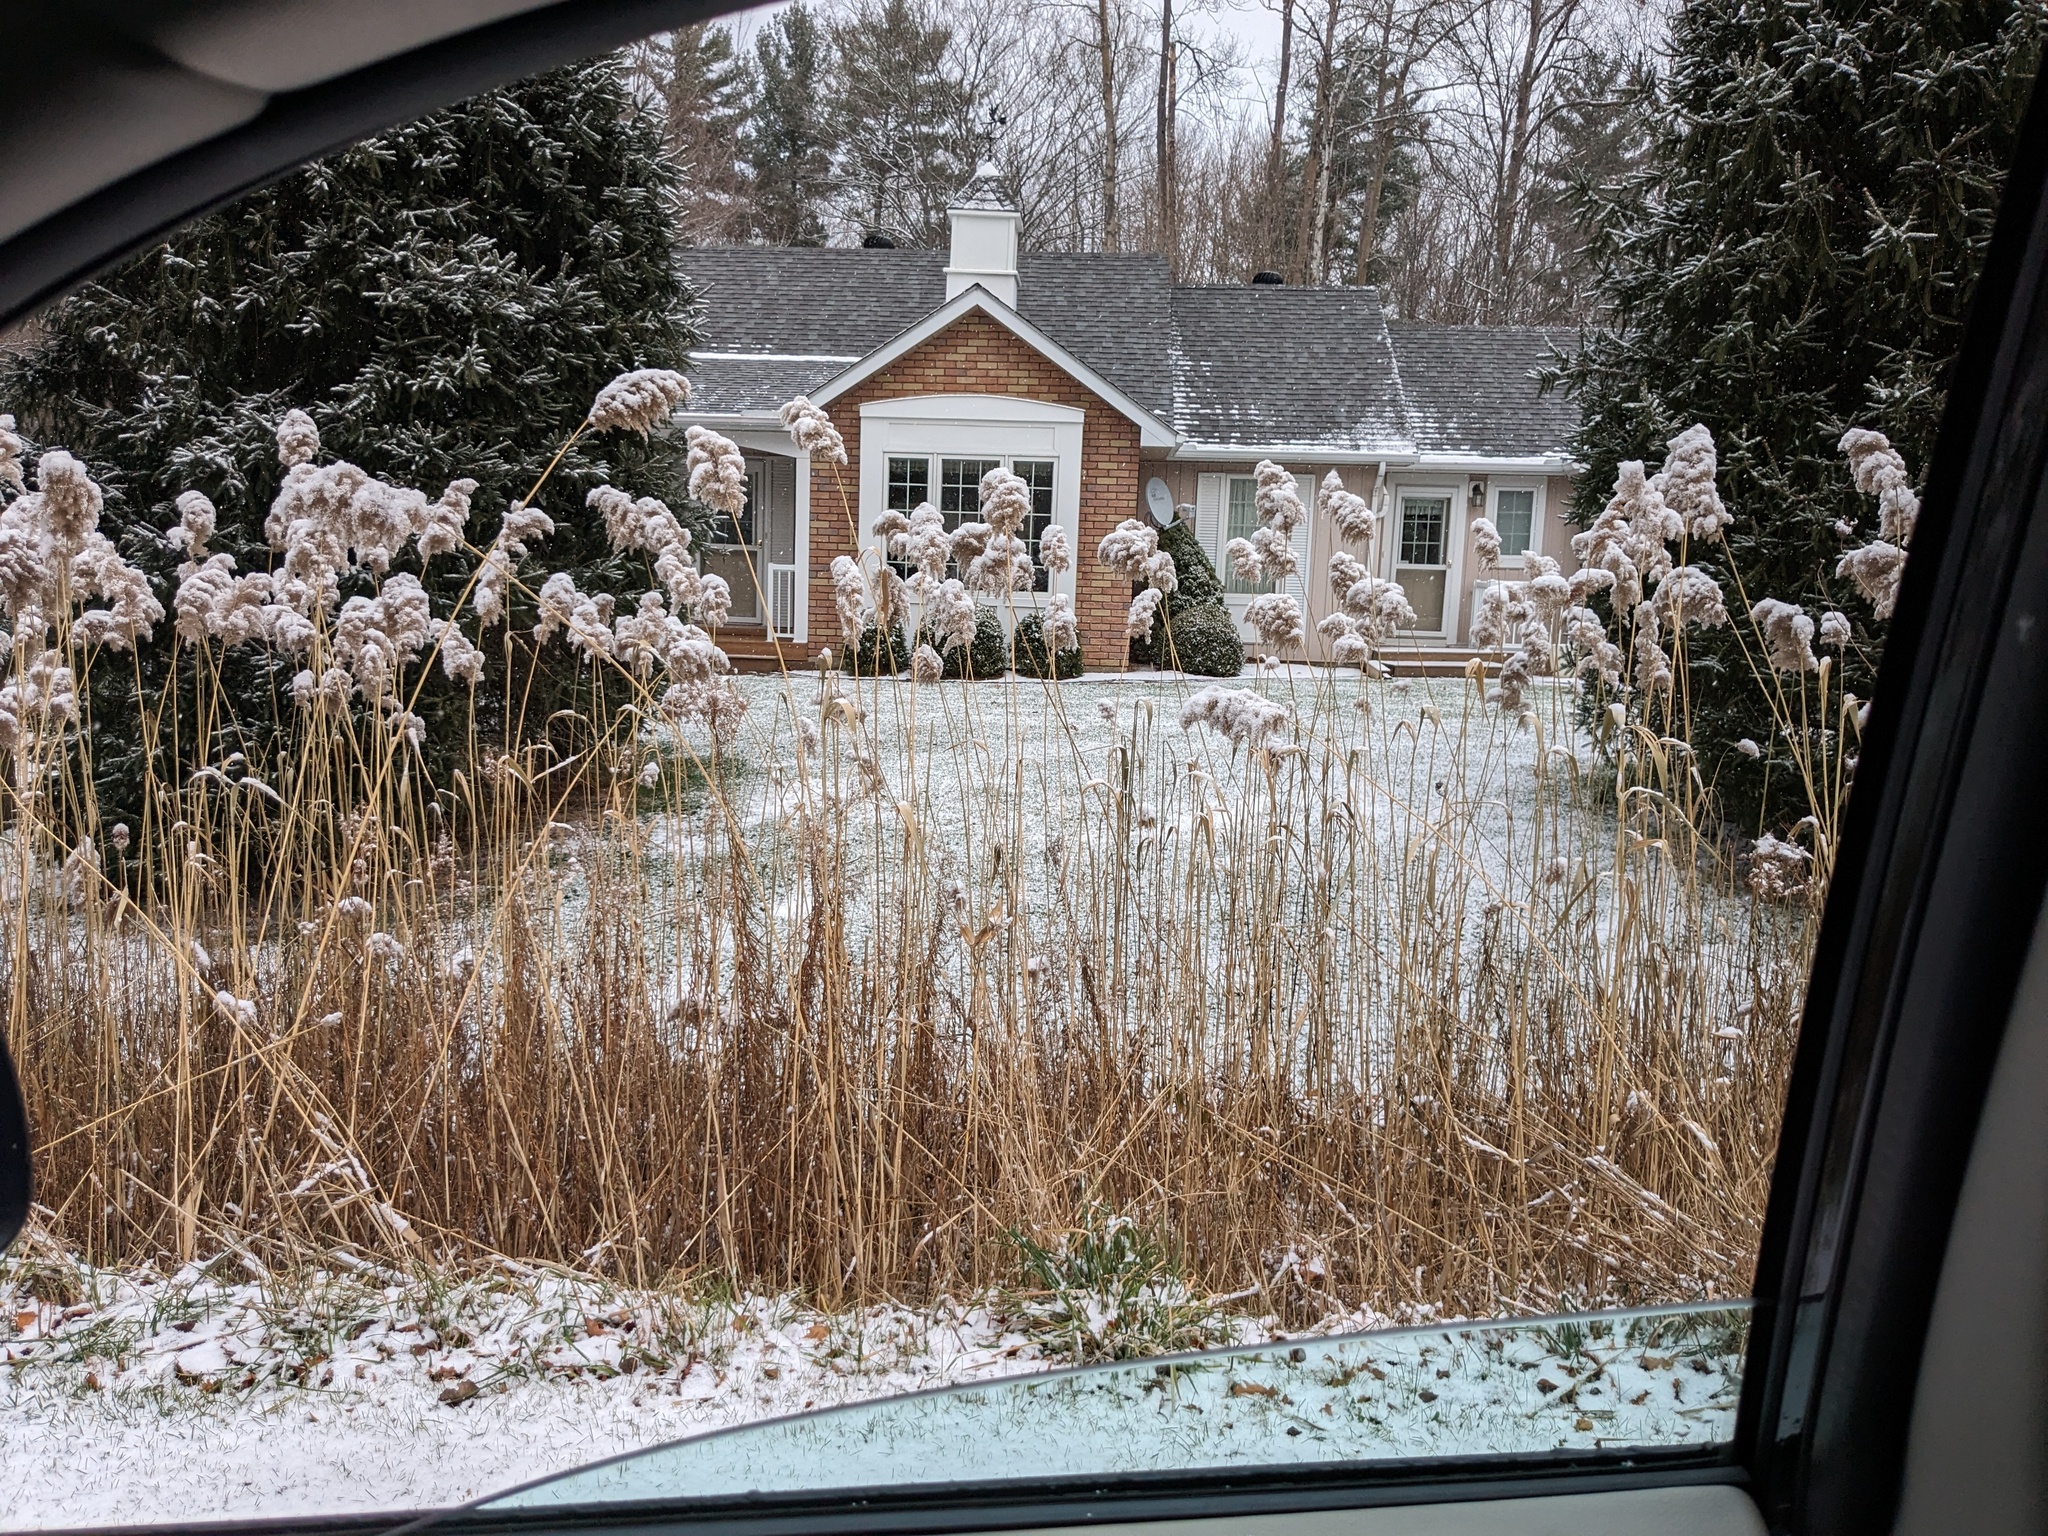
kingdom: Plantae
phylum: Tracheophyta
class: Liliopsida
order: Poales
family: Poaceae
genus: Phragmites
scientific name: Phragmites australis
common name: Common reed
